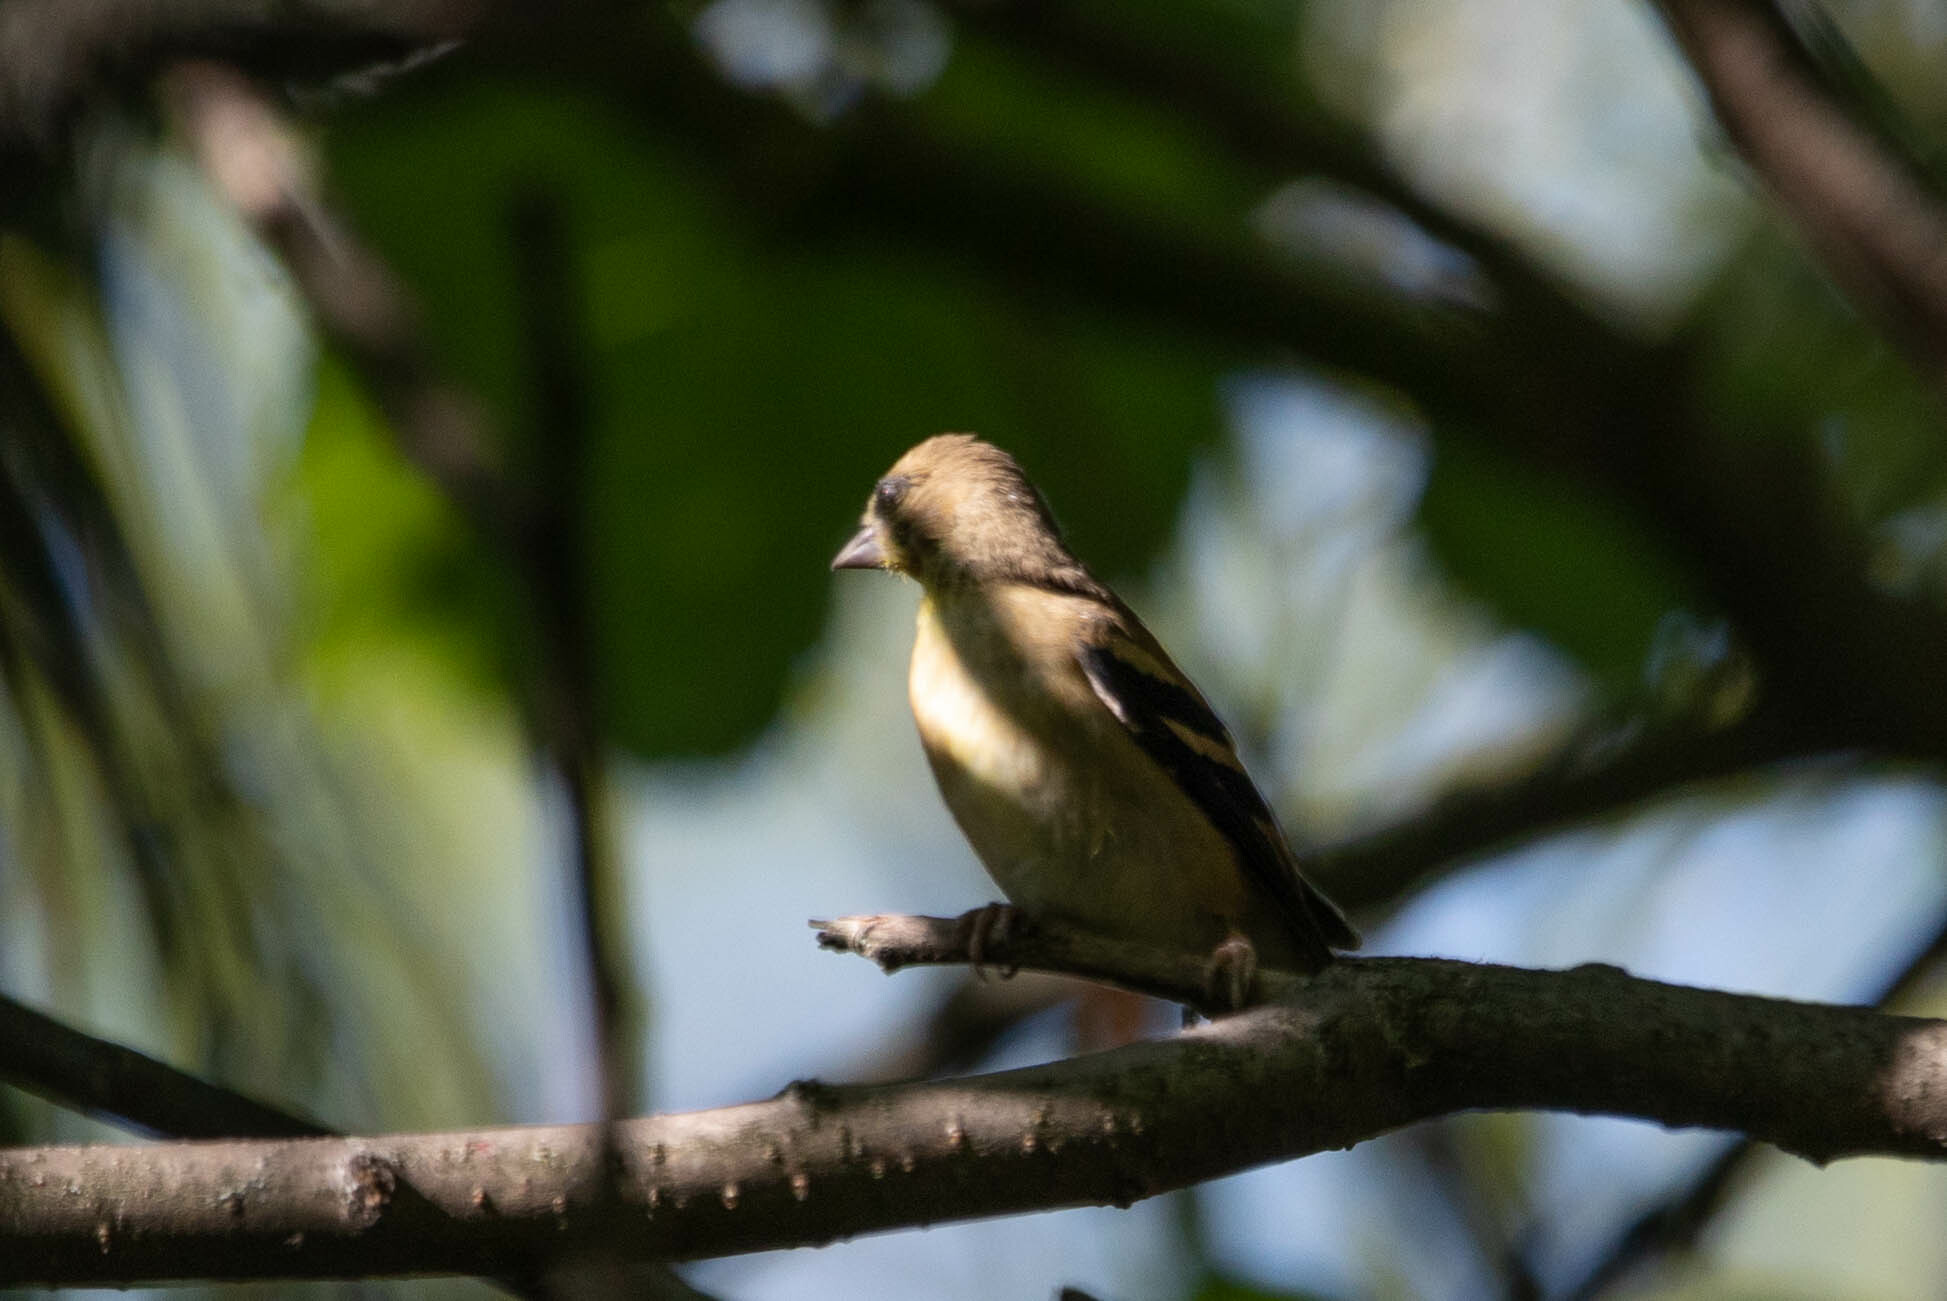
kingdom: Animalia
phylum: Chordata
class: Aves
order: Passeriformes
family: Fringillidae
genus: Spinus
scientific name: Spinus tristis
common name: American goldfinch
